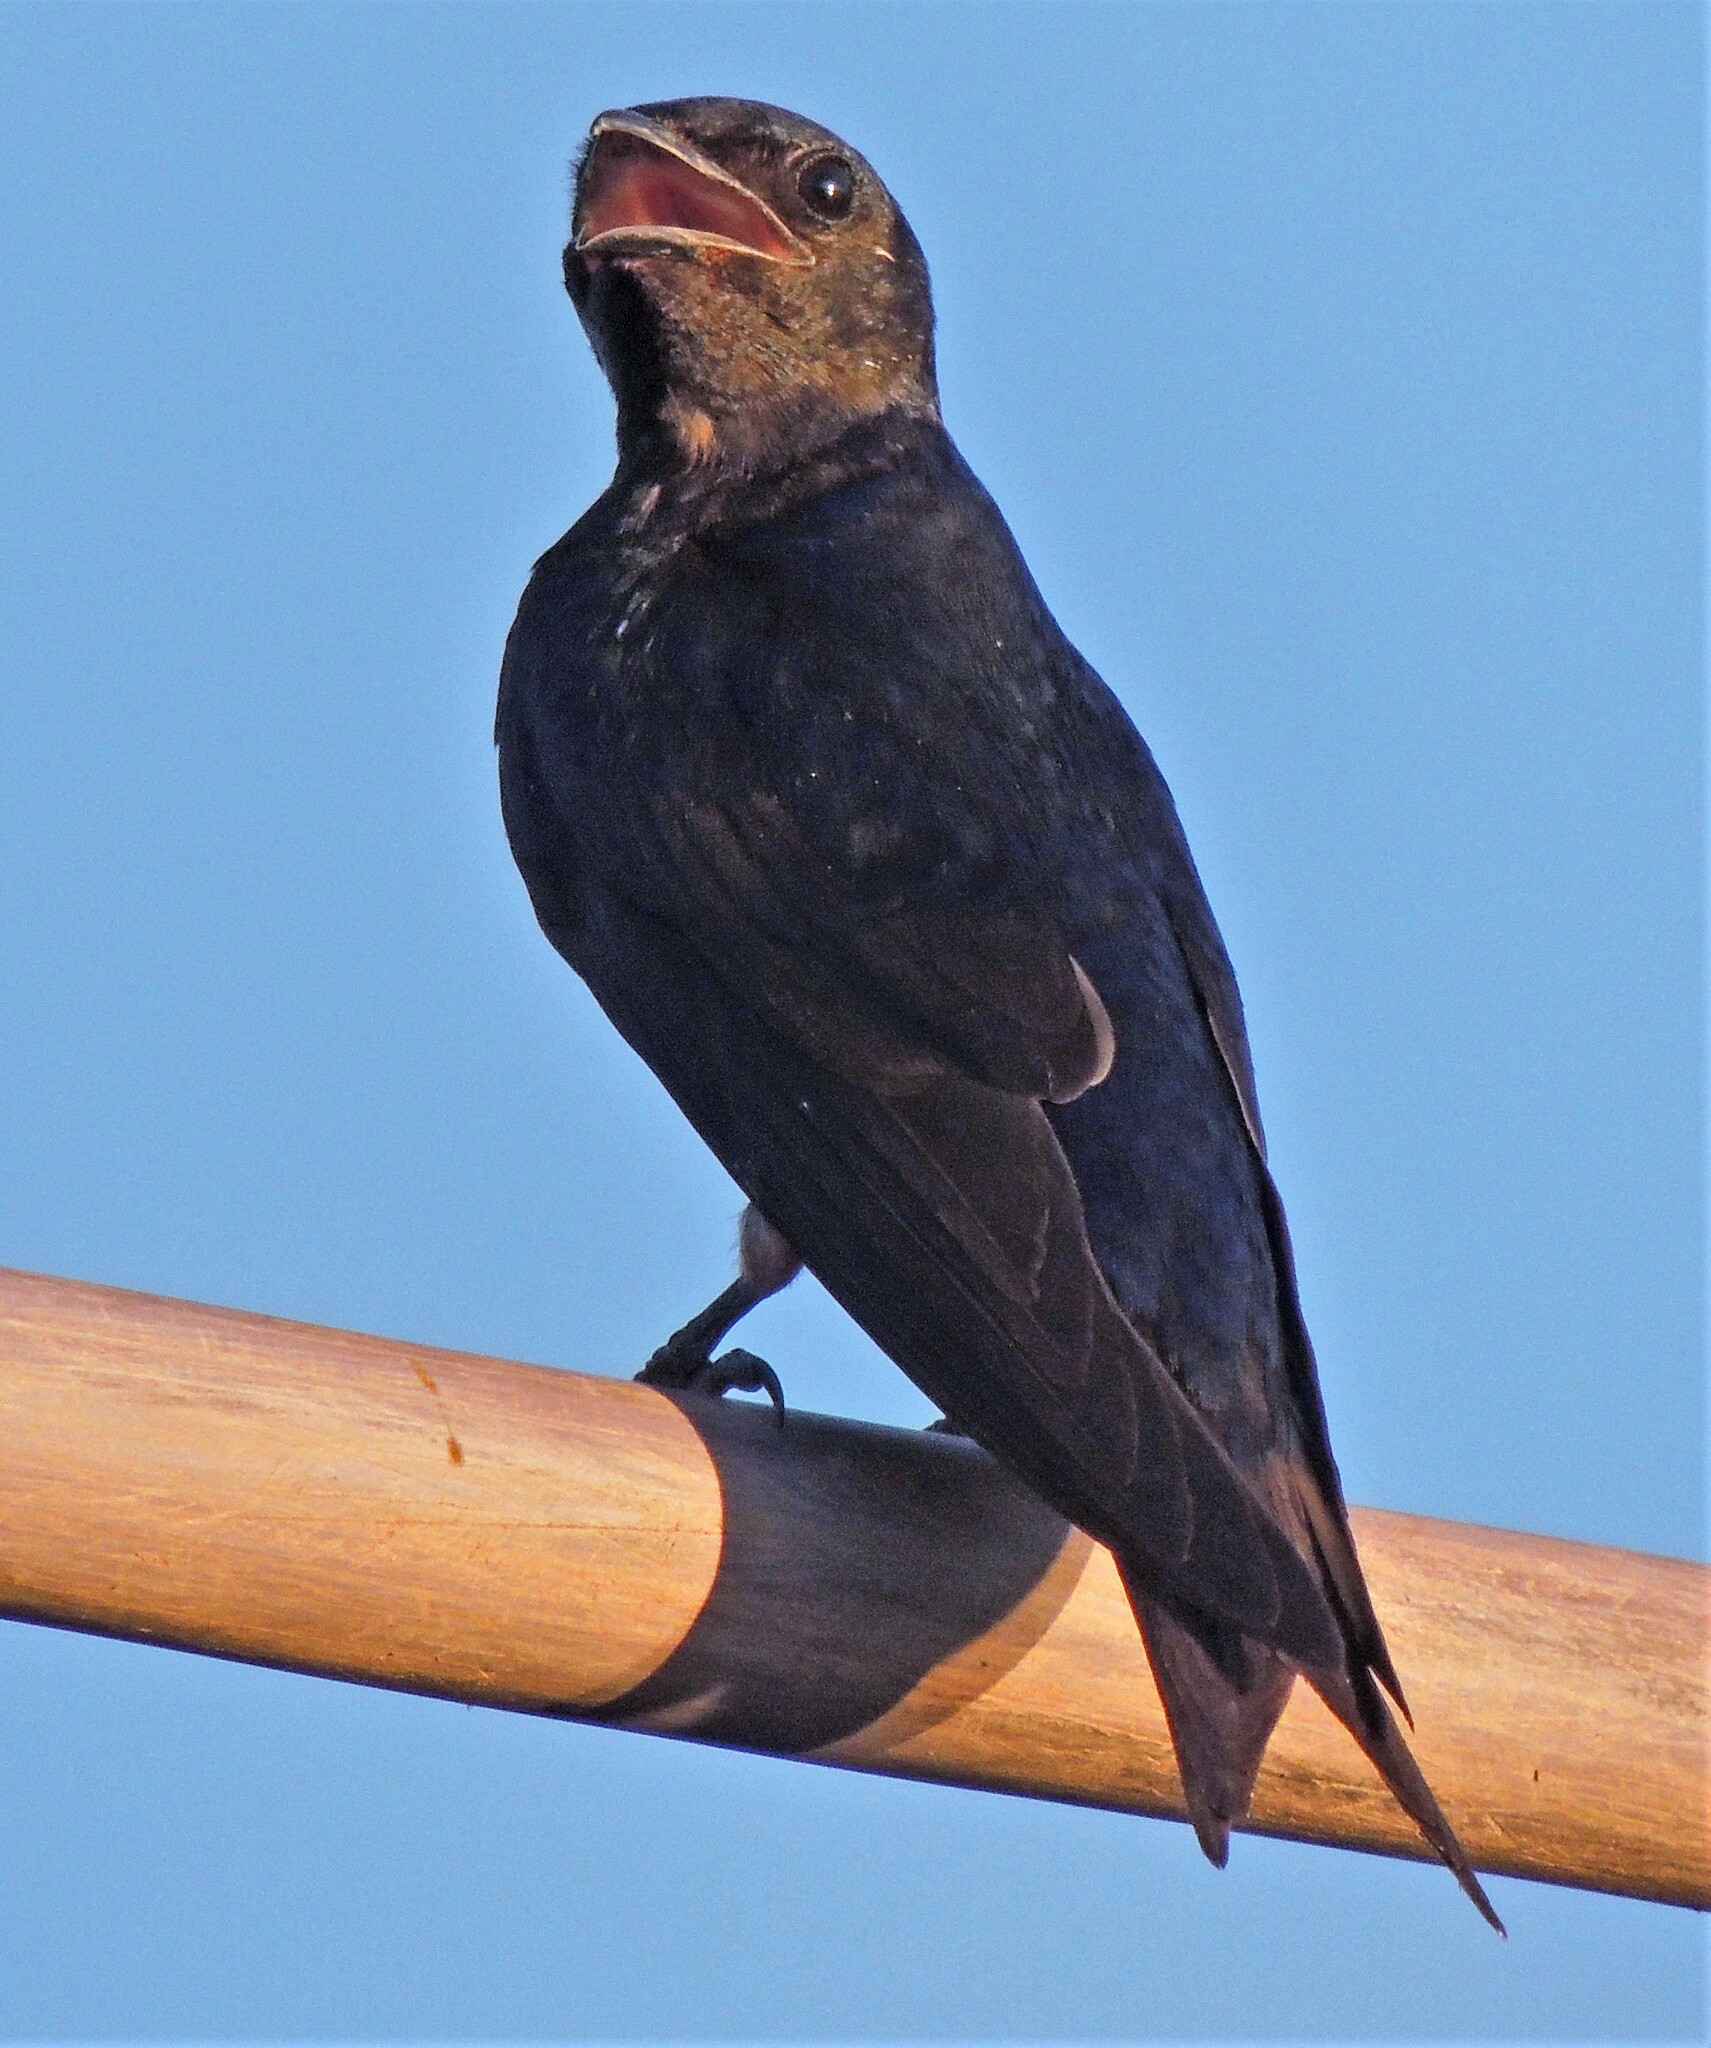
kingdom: Animalia
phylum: Chordata
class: Aves
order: Passeriformes
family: Hirundinidae
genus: Progne
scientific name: Progne elegans
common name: Southern martin
